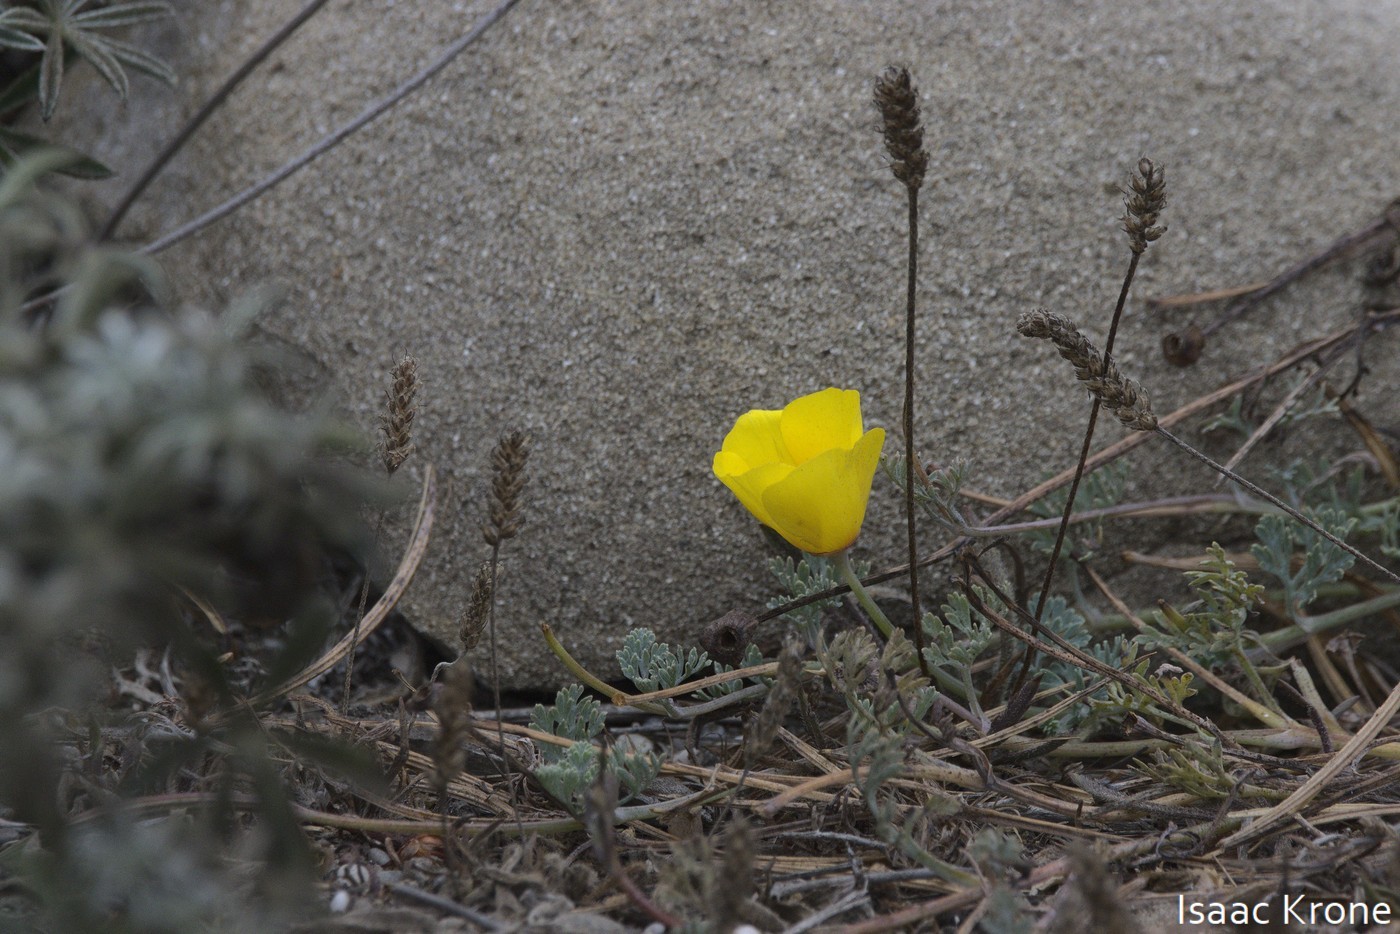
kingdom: Plantae
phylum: Tracheophyta
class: Magnoliopsida
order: Ranunculales
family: Papaveraceae
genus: Eschscholzia
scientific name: Eschscholzia californica
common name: California poppy
